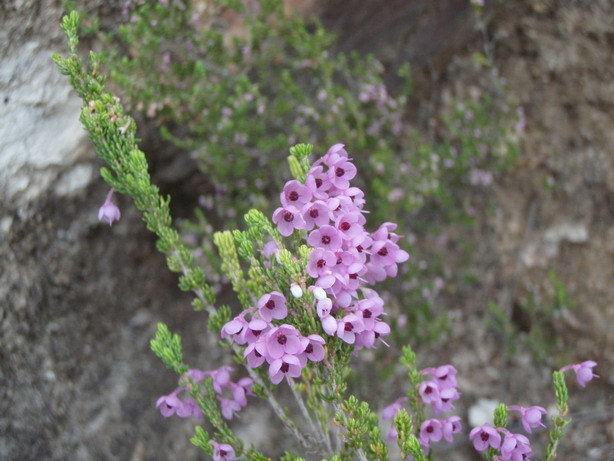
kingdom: Plantae
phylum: Tracheophyta
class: Magnoliopsida
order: Ericales
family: Ericaceae
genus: Erica
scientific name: Erica newdigatei
